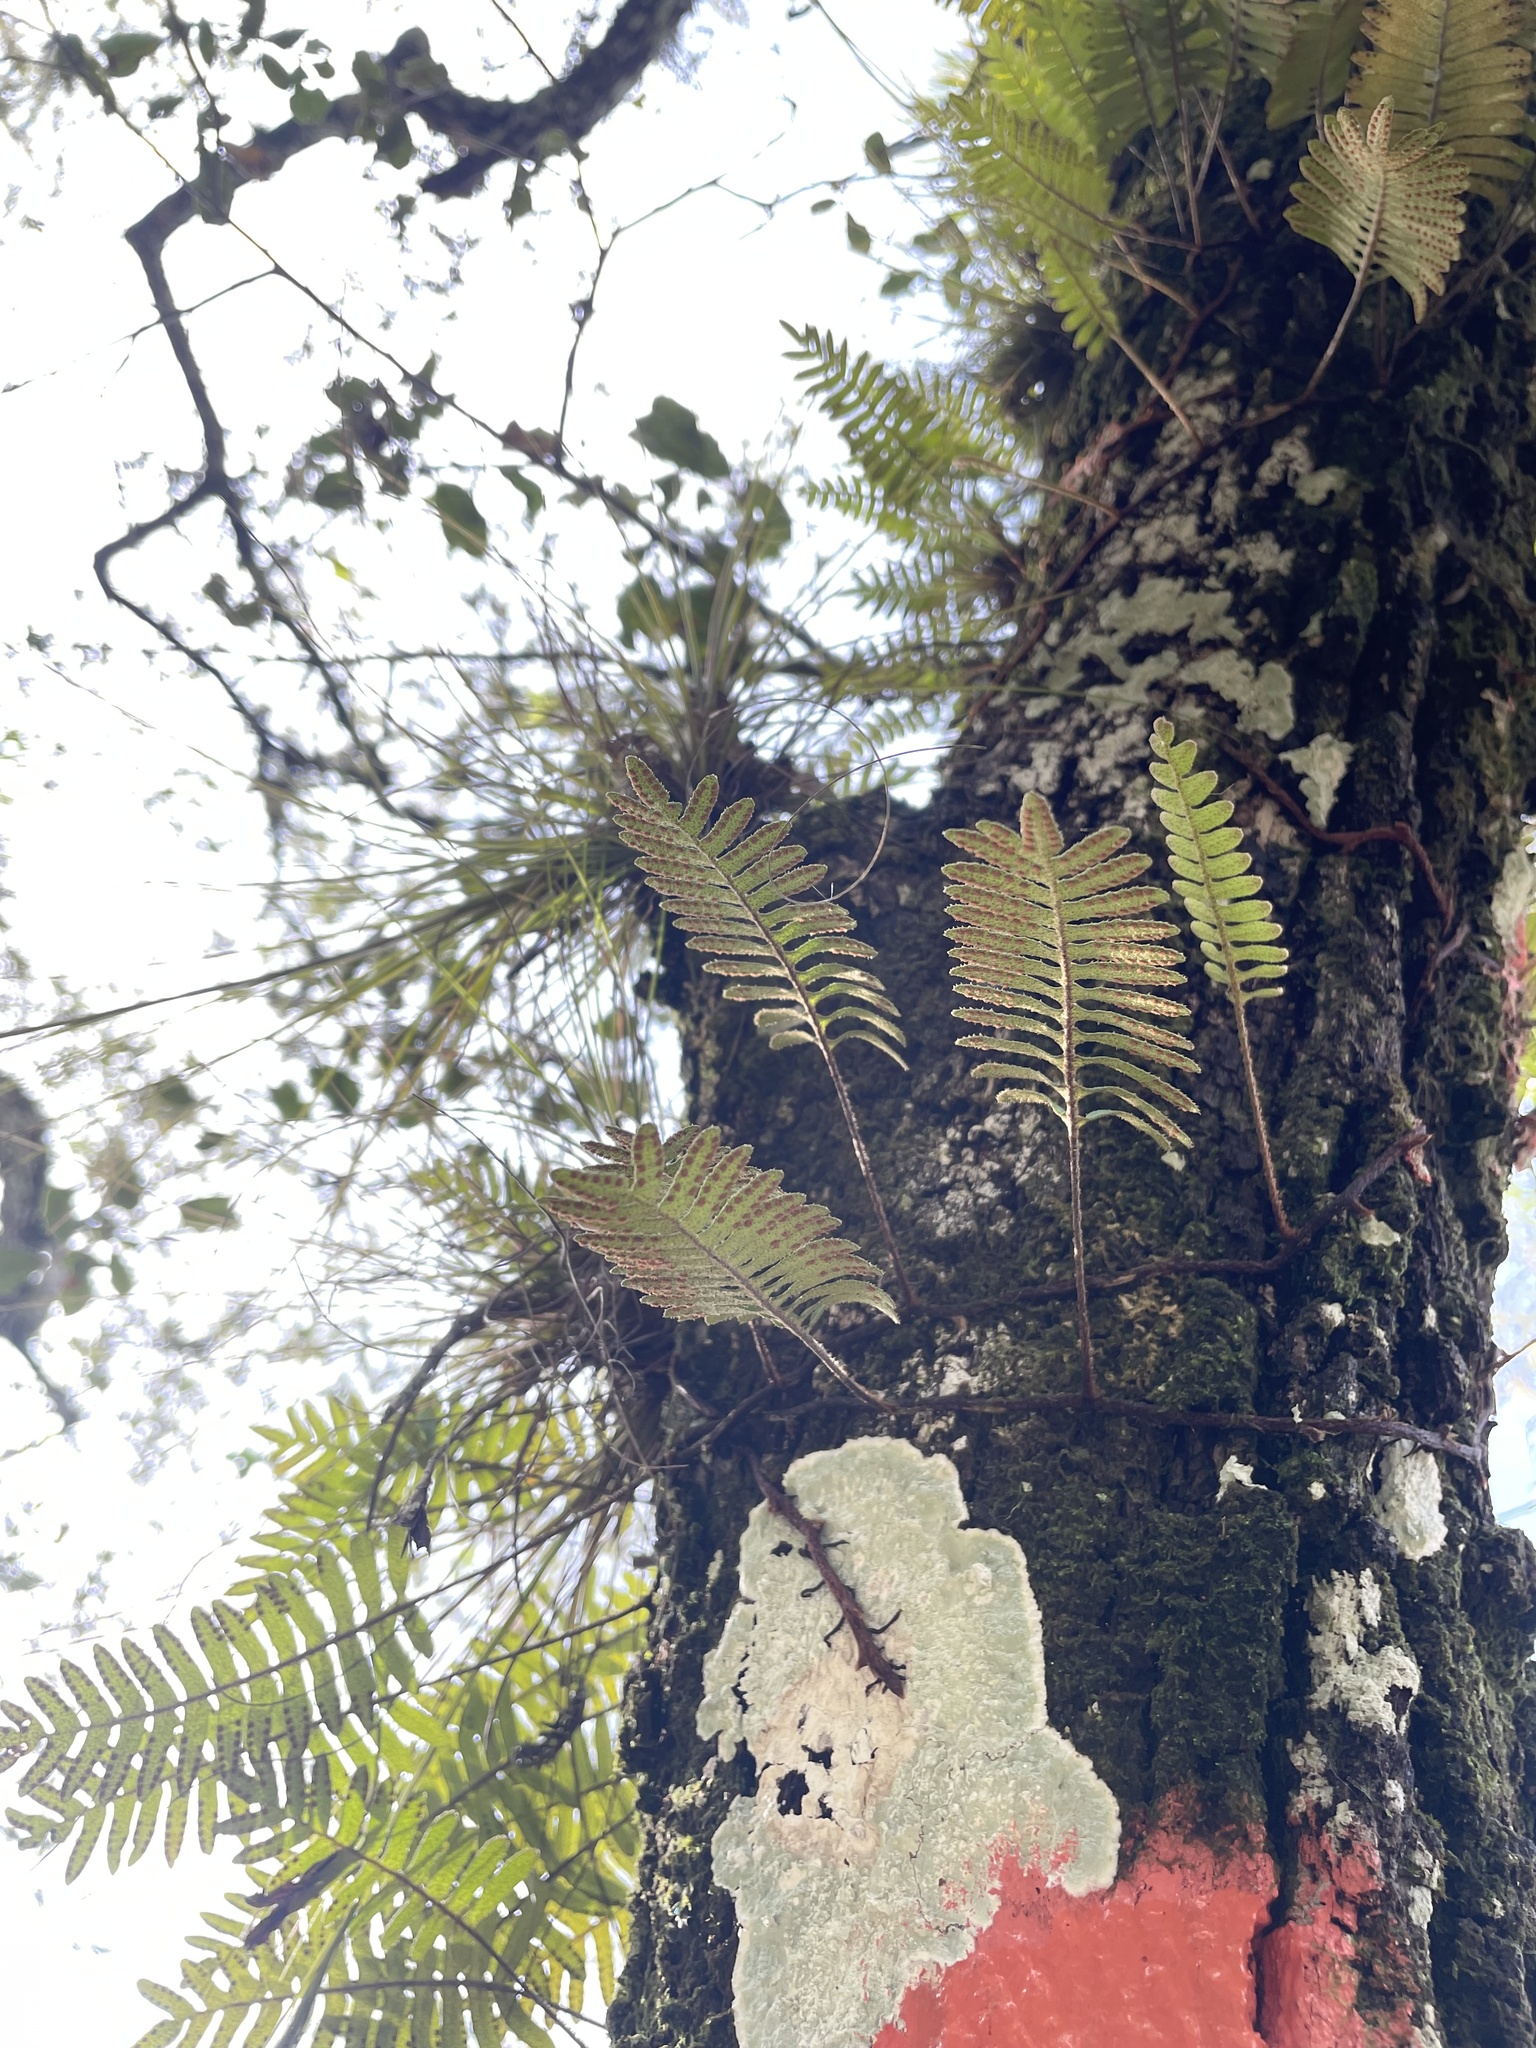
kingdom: Plantae
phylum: Tracheophyta
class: Polypodiopsida
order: Polypodiales
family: Polypodiaceae
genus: Pleopeltis
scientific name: Pleopeltis michauxiana
